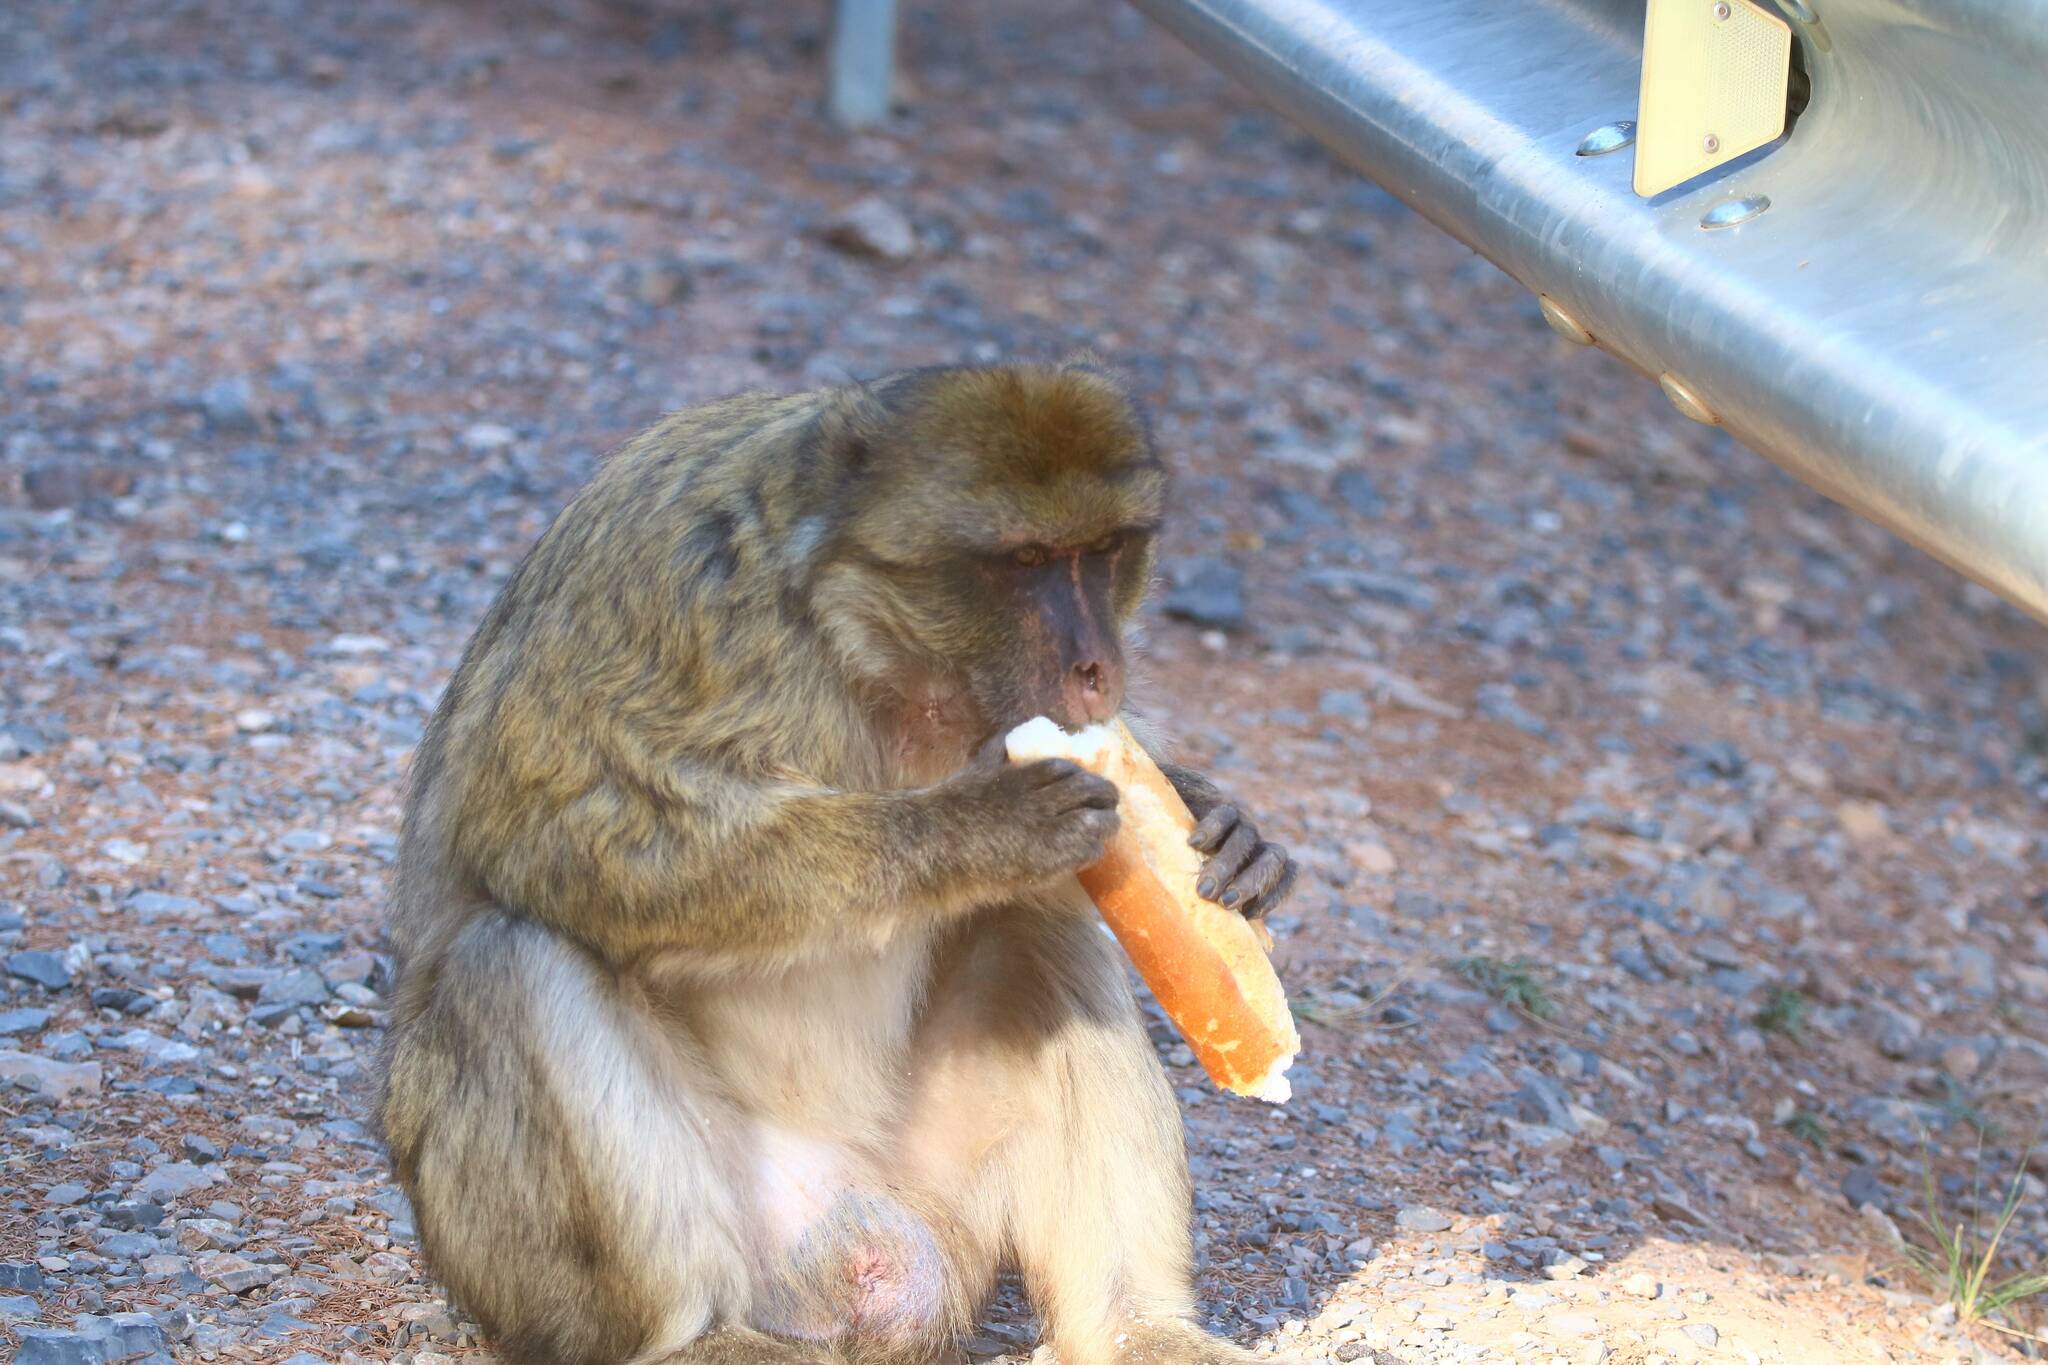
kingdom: Animalia
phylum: Chordata
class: Mammalia
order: Primates
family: Cercopithecidae
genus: Macaca
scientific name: Macaca sylvanus
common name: Barbary macaque
